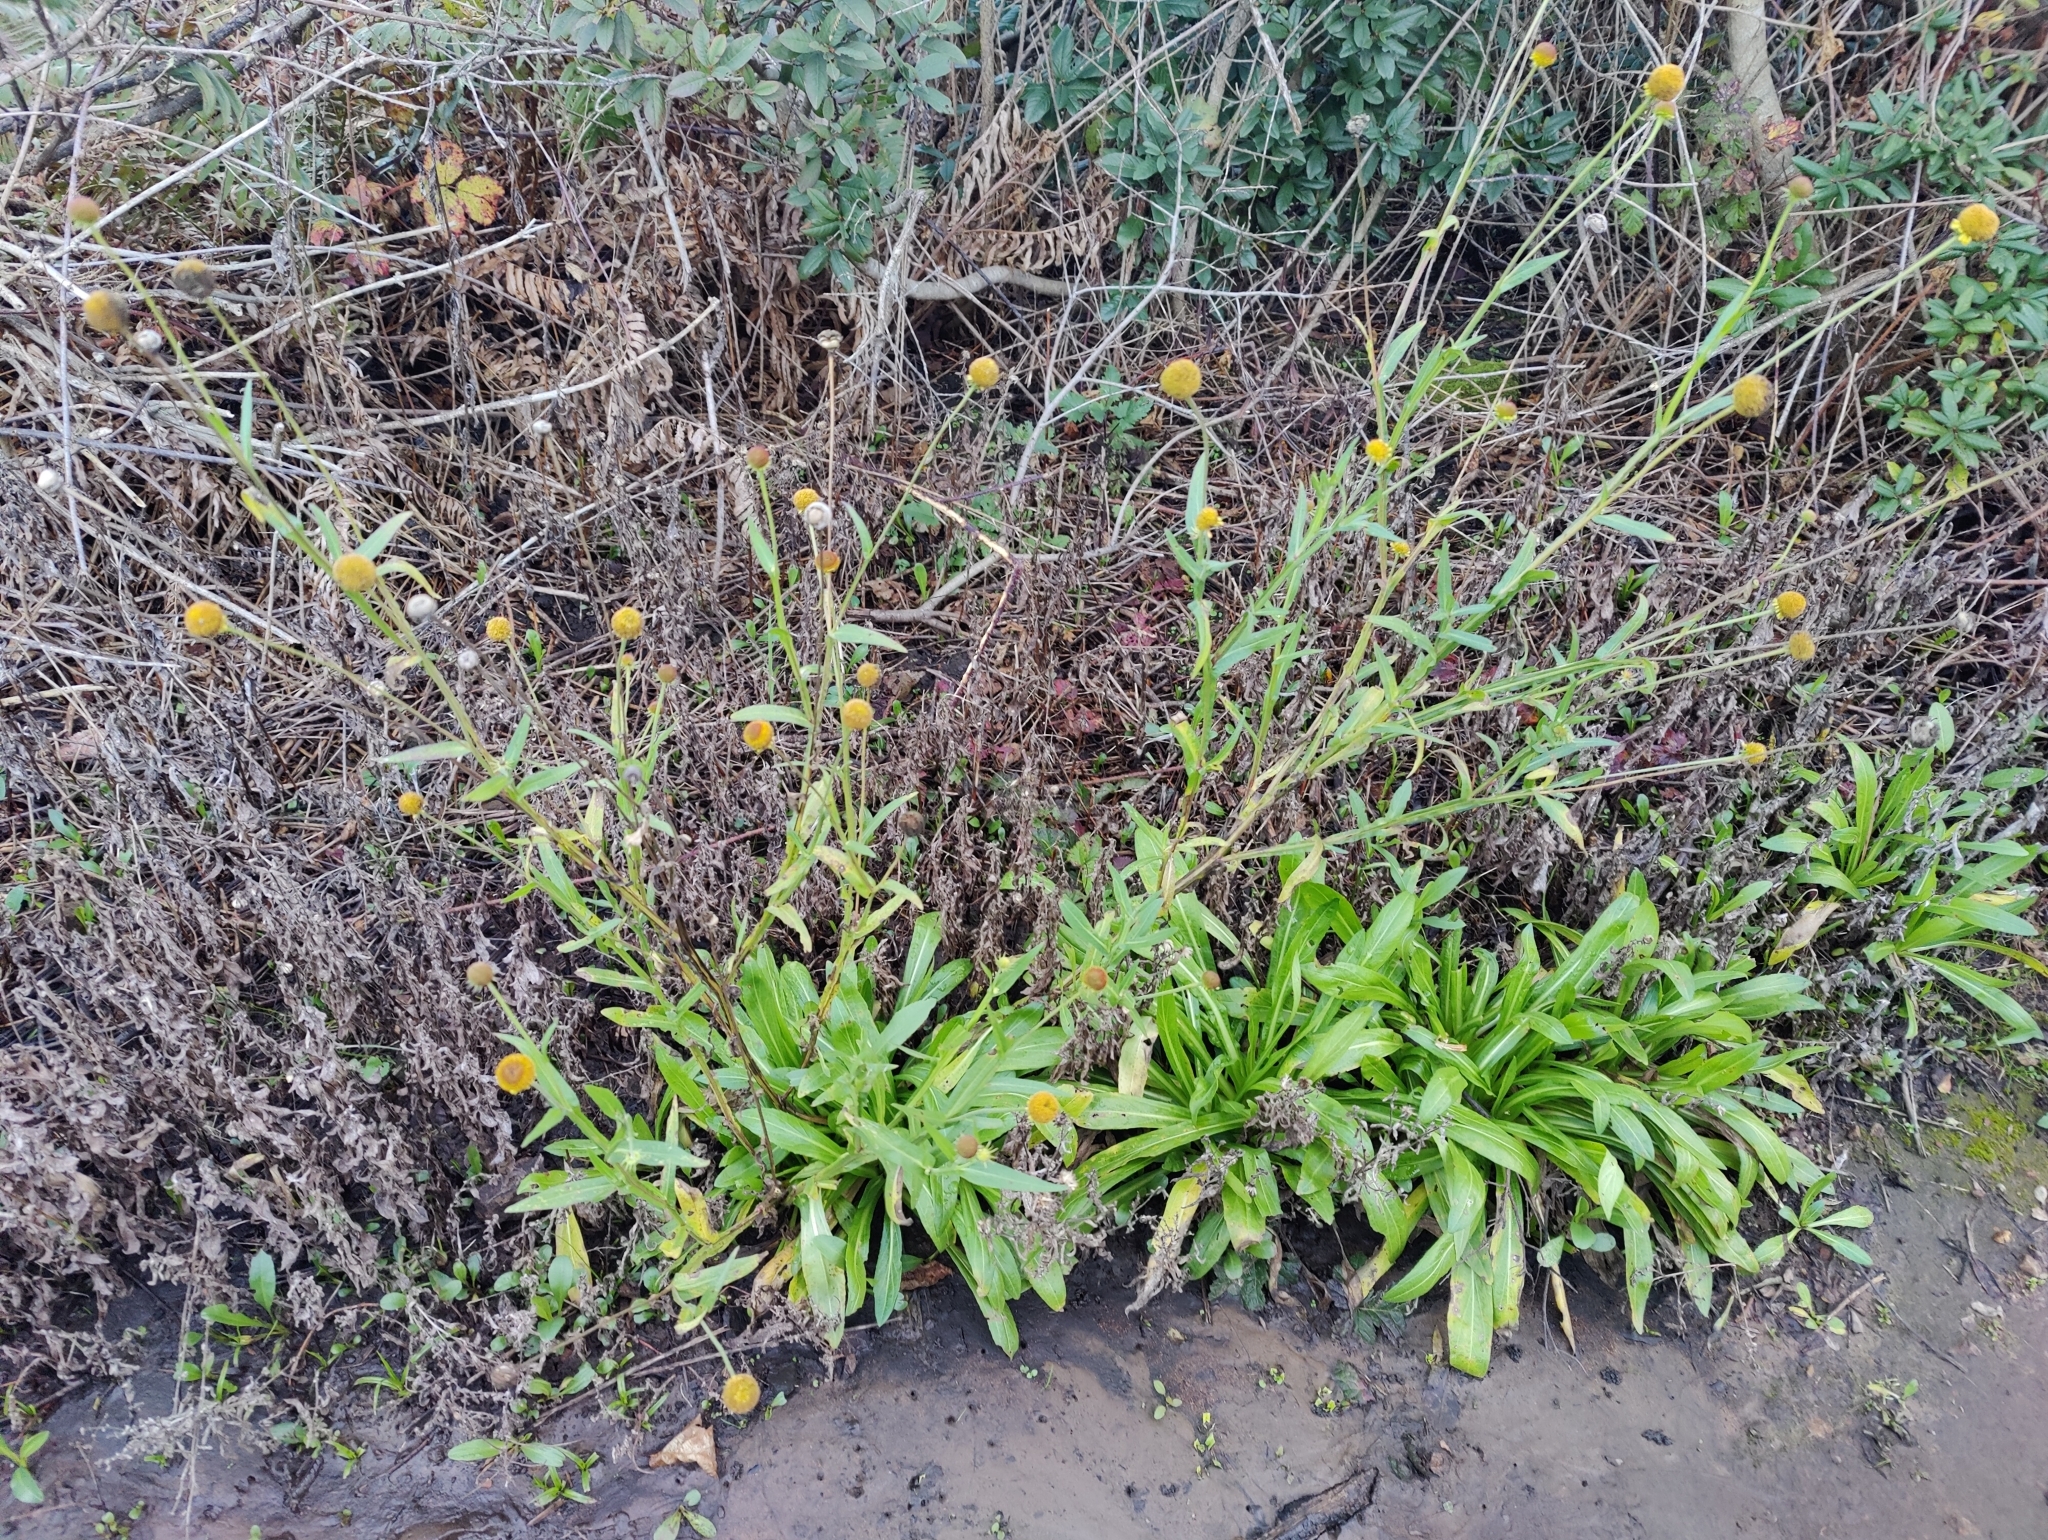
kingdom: Plantae
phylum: Tracheophyta
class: Magnoliopsida
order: Asterales
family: Asteraceae
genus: Helenium
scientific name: Helenium puberulum
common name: Sneezewort
